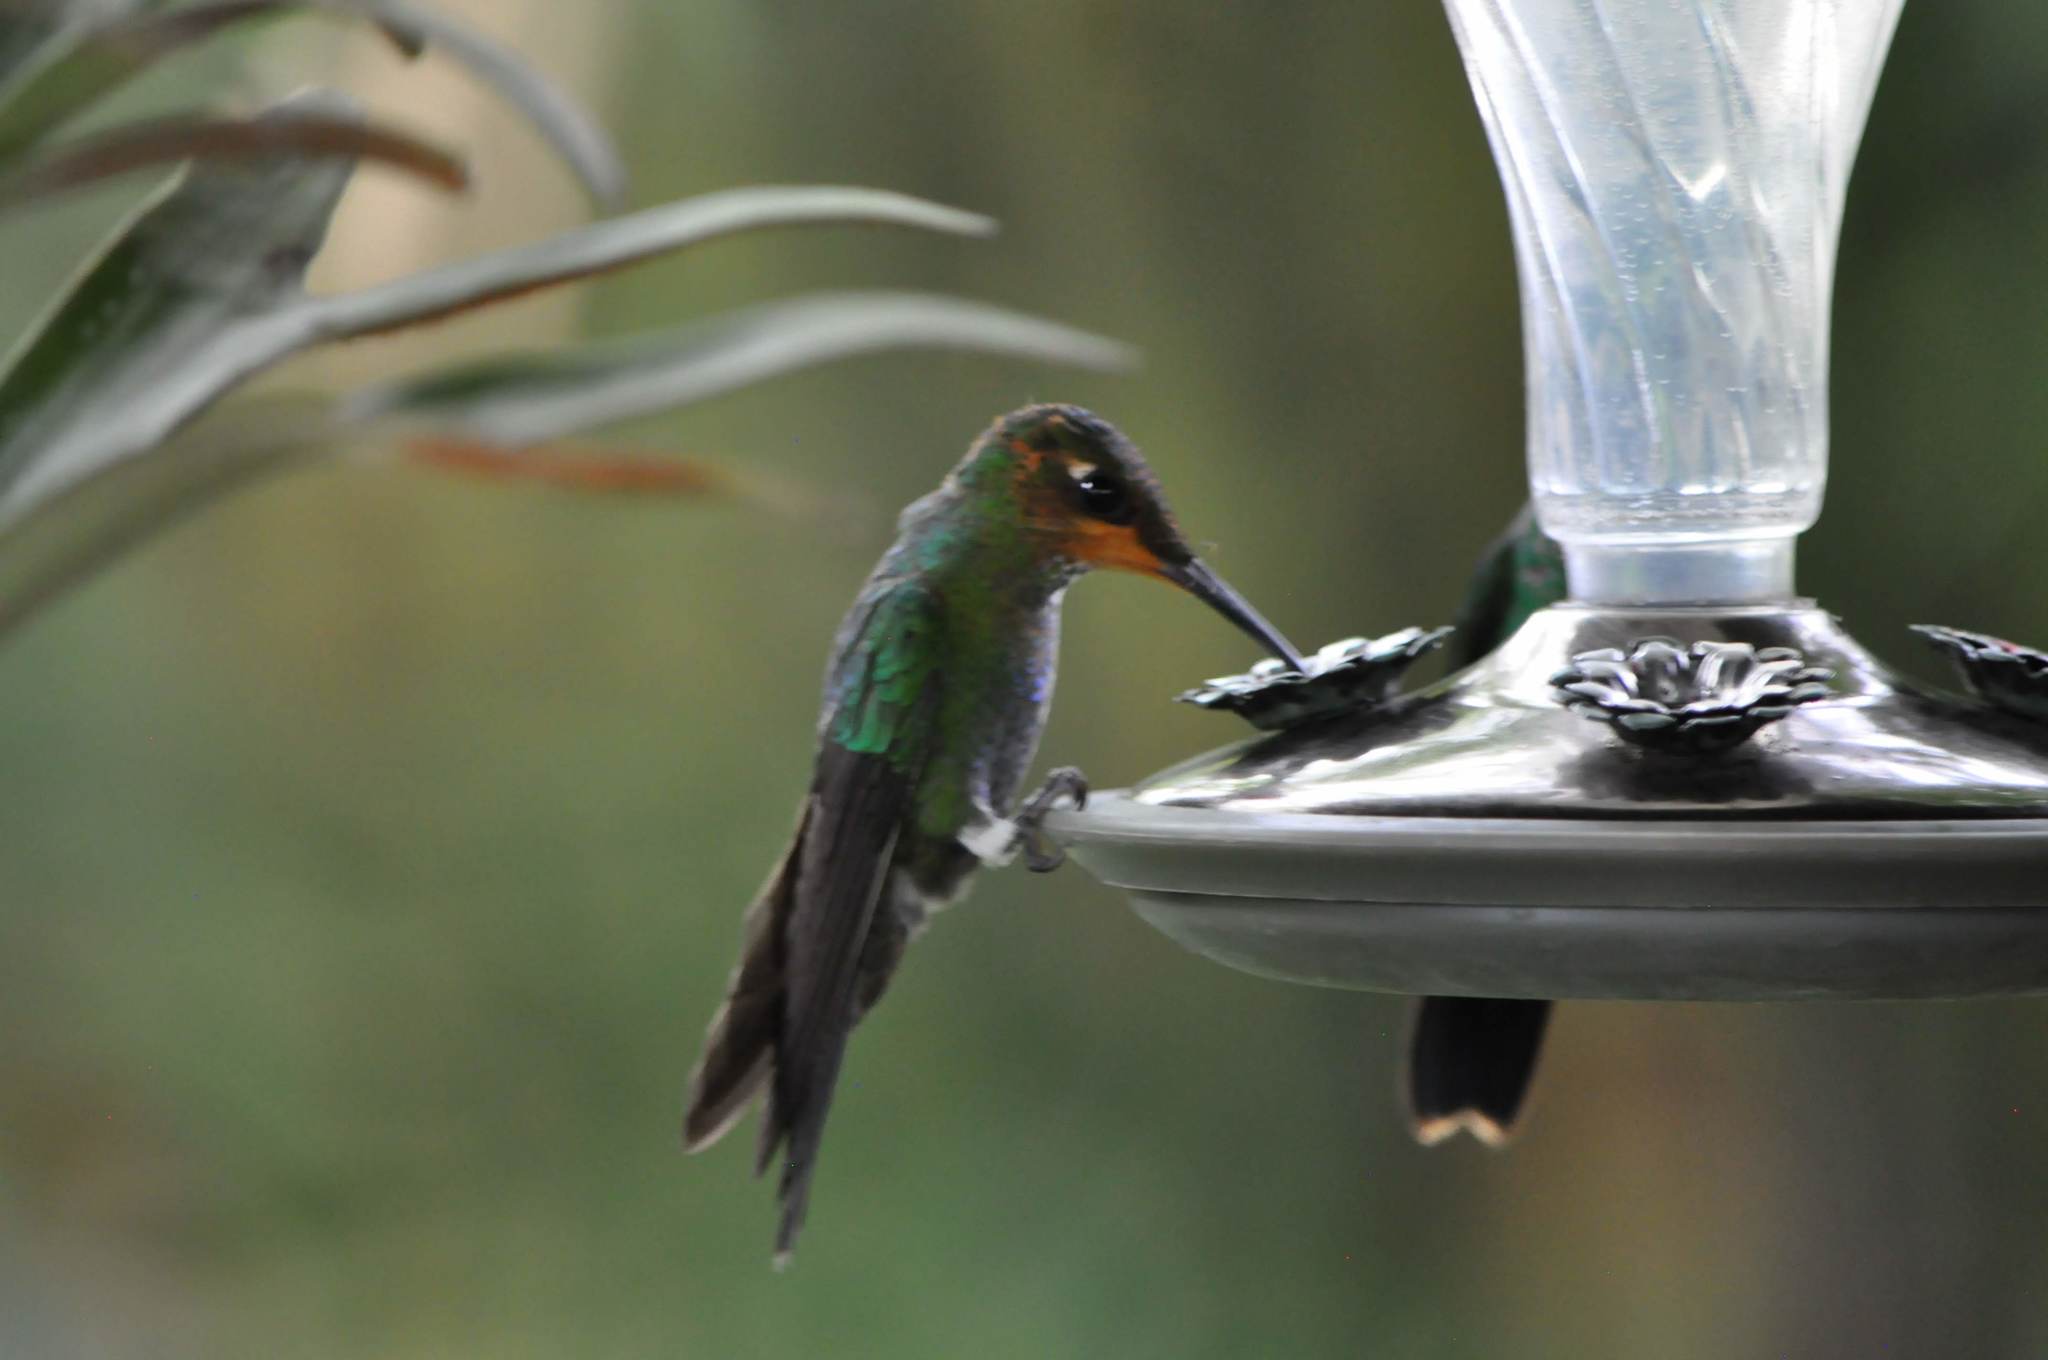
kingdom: Animalia
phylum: Chordata
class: Aves
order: Apodiformes
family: Trochilidae
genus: Heliodoxa
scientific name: Heliodoxa jacula
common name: Green-crowned brilliant
